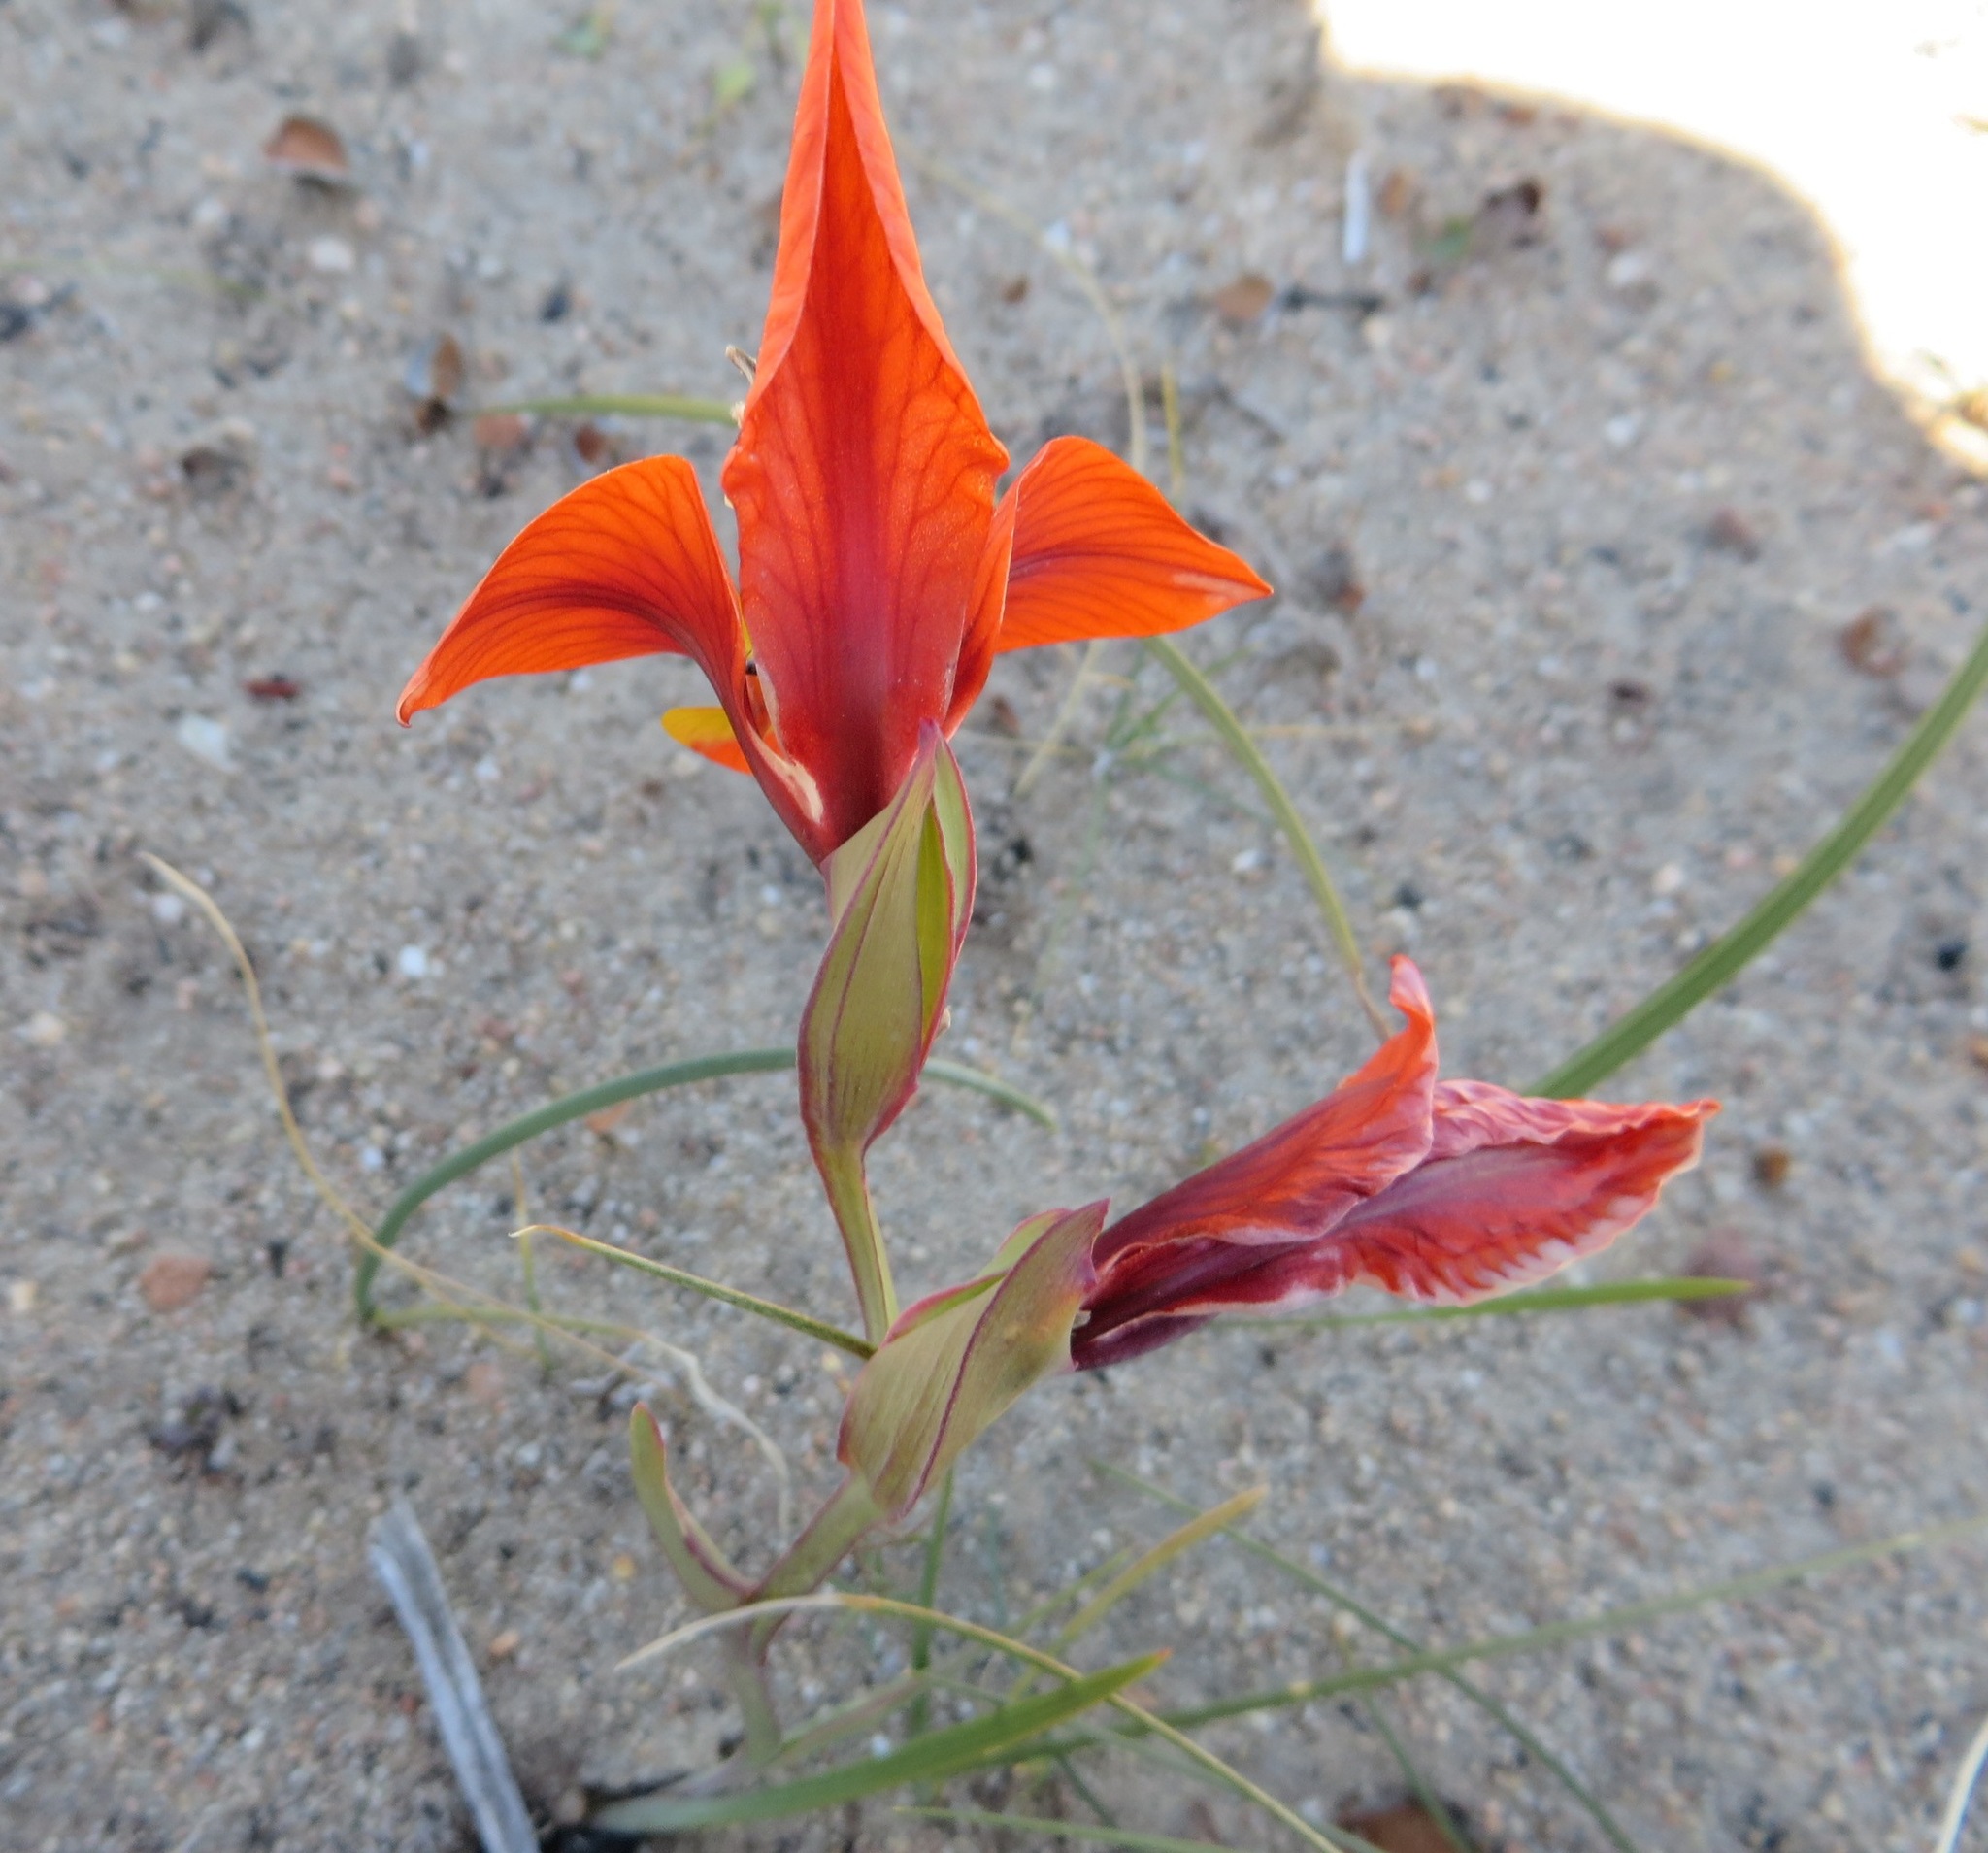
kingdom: Plantae
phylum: Tracheophyta
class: Liliopsida
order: Asparagales
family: Iridaceae
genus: Gladiolus
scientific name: Gladiolus alatus
